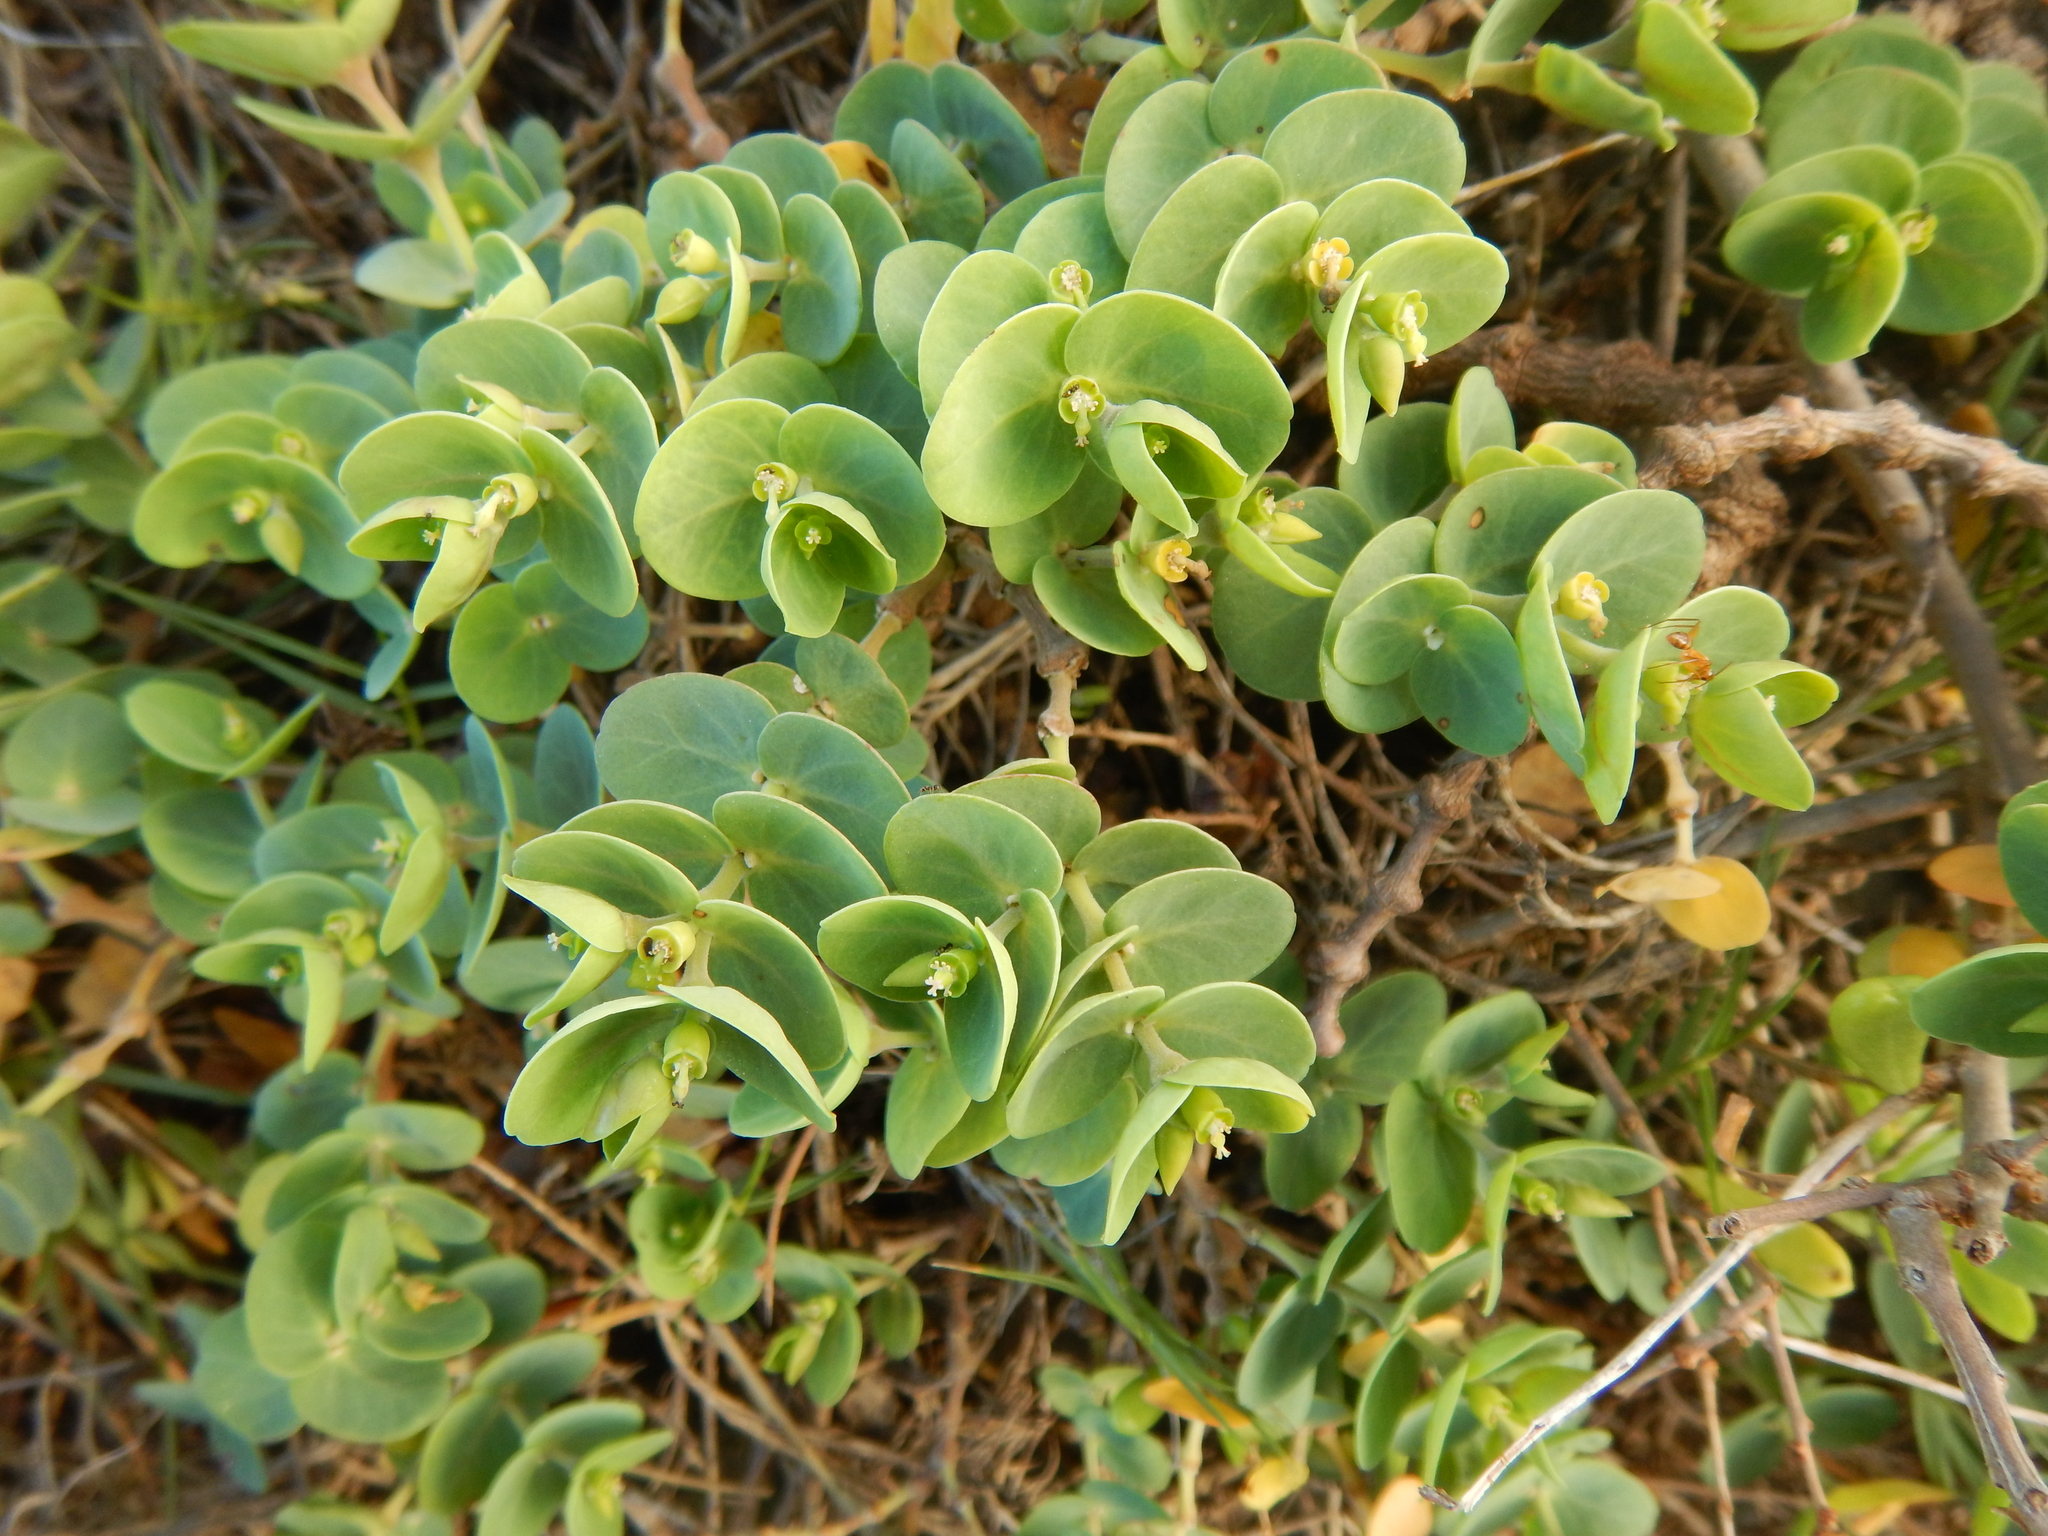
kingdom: Plantae
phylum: Tracheophyta
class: Magnoliopsida
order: Malpighiales
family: Euphorbiaceae
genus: Euphorbia
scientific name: Euphorbia degeneri
